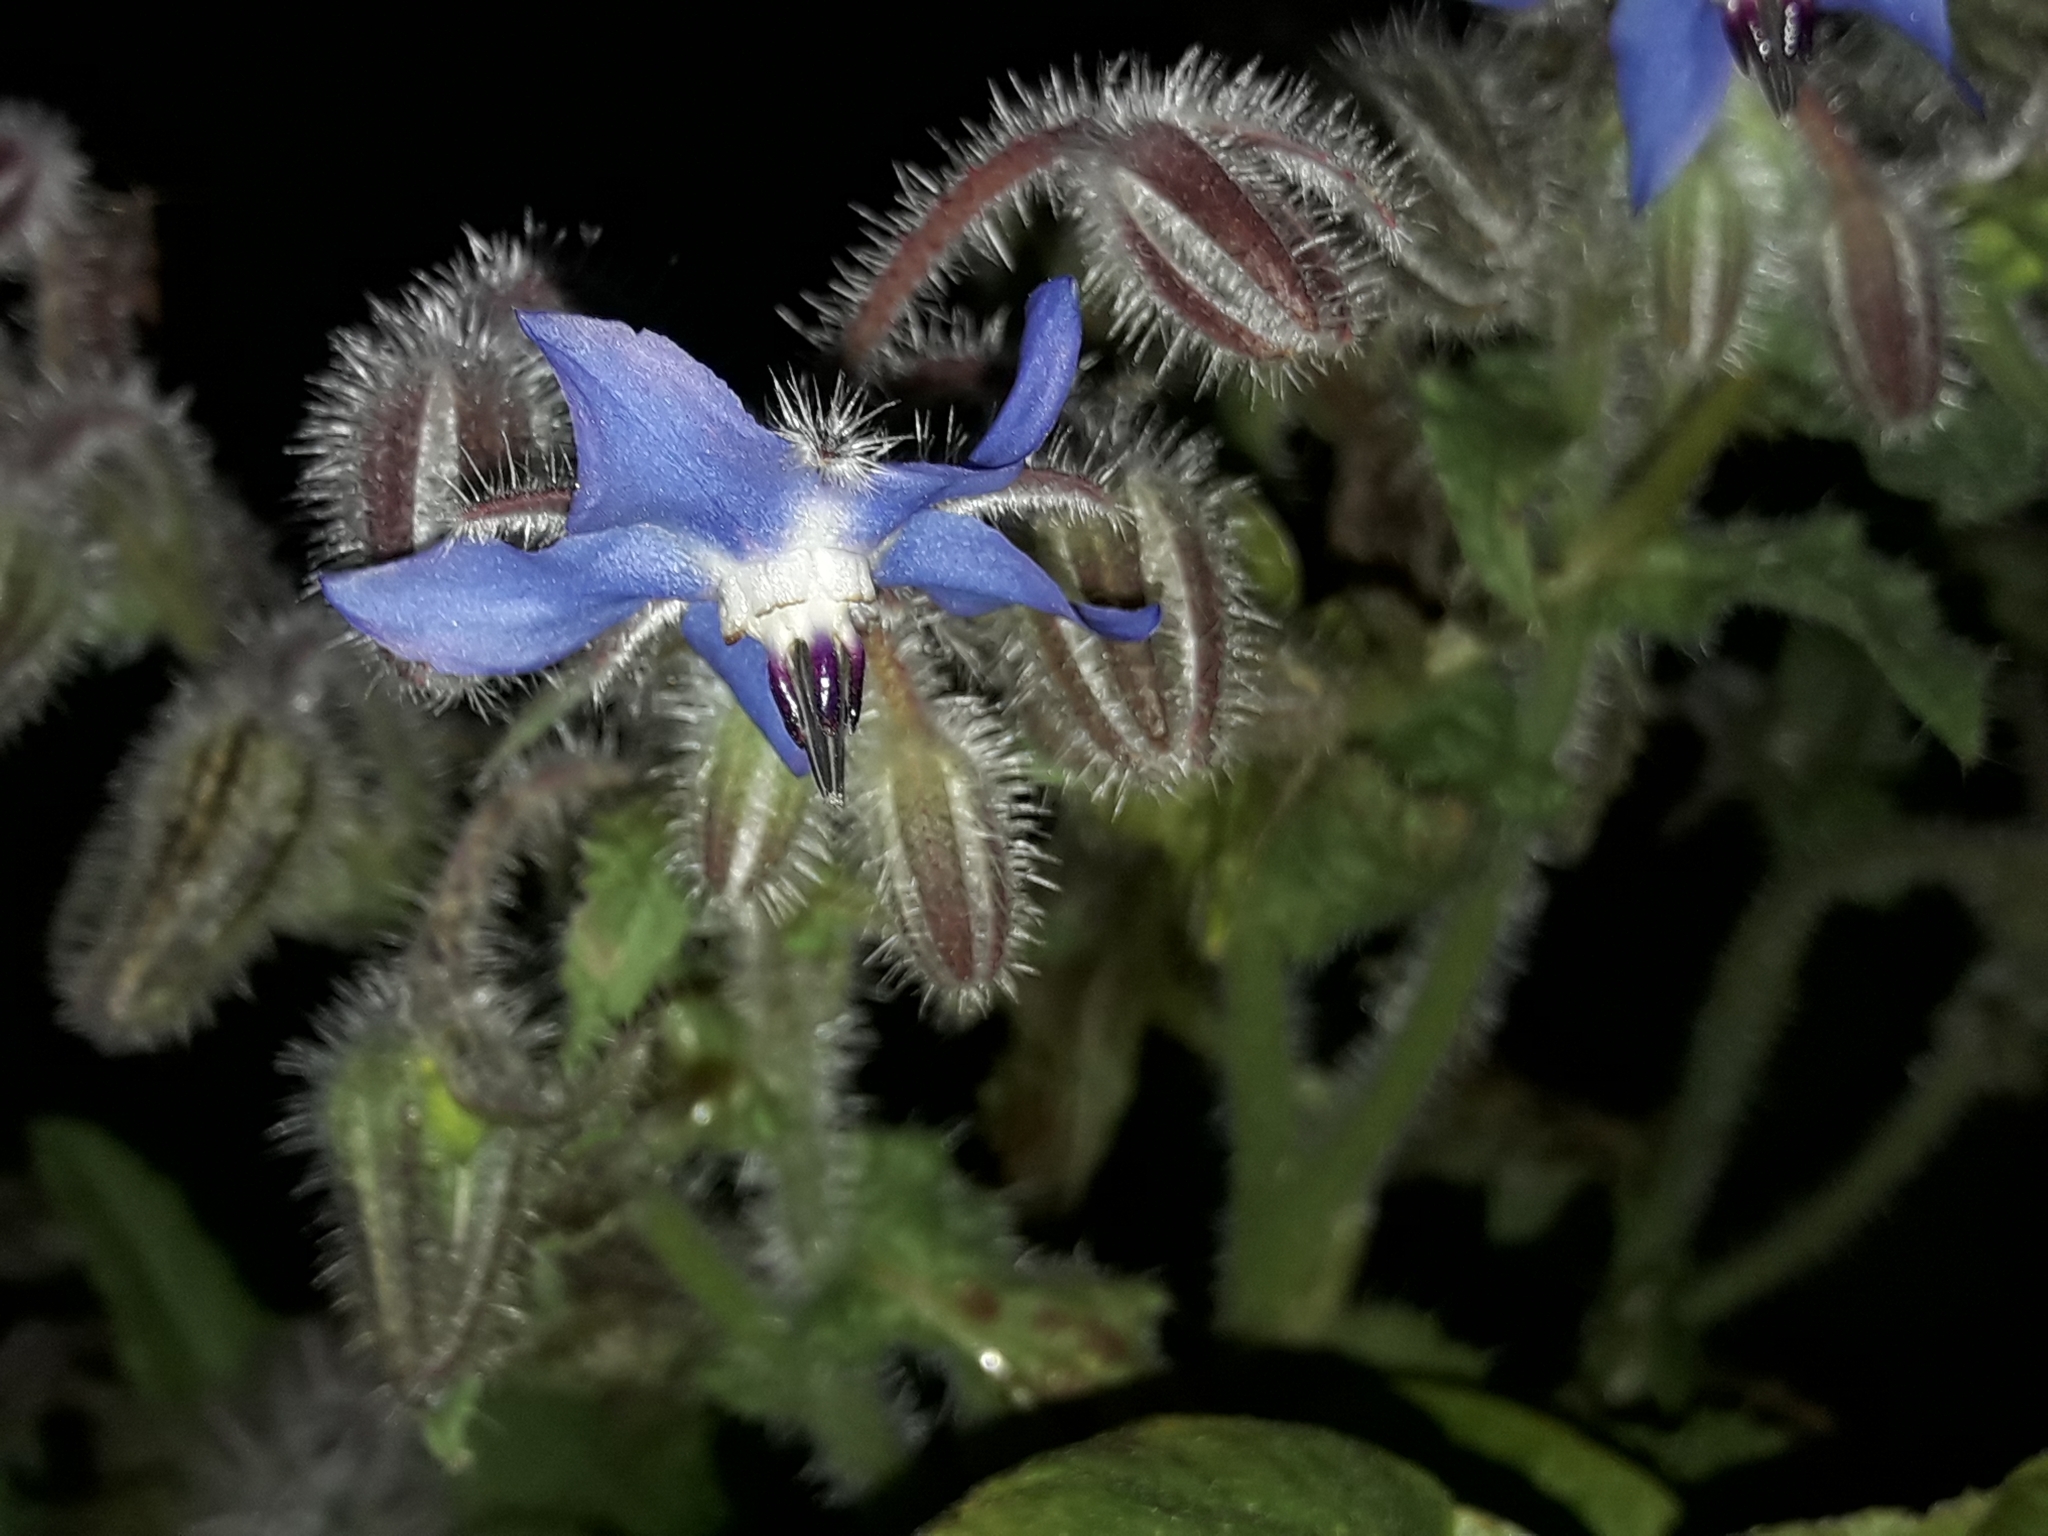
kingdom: Plantae
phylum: Tracheophyta
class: Magnoliopsida
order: Boraginales
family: Boraginaceae
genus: Borago
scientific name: Borago officinalis
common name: Borage
